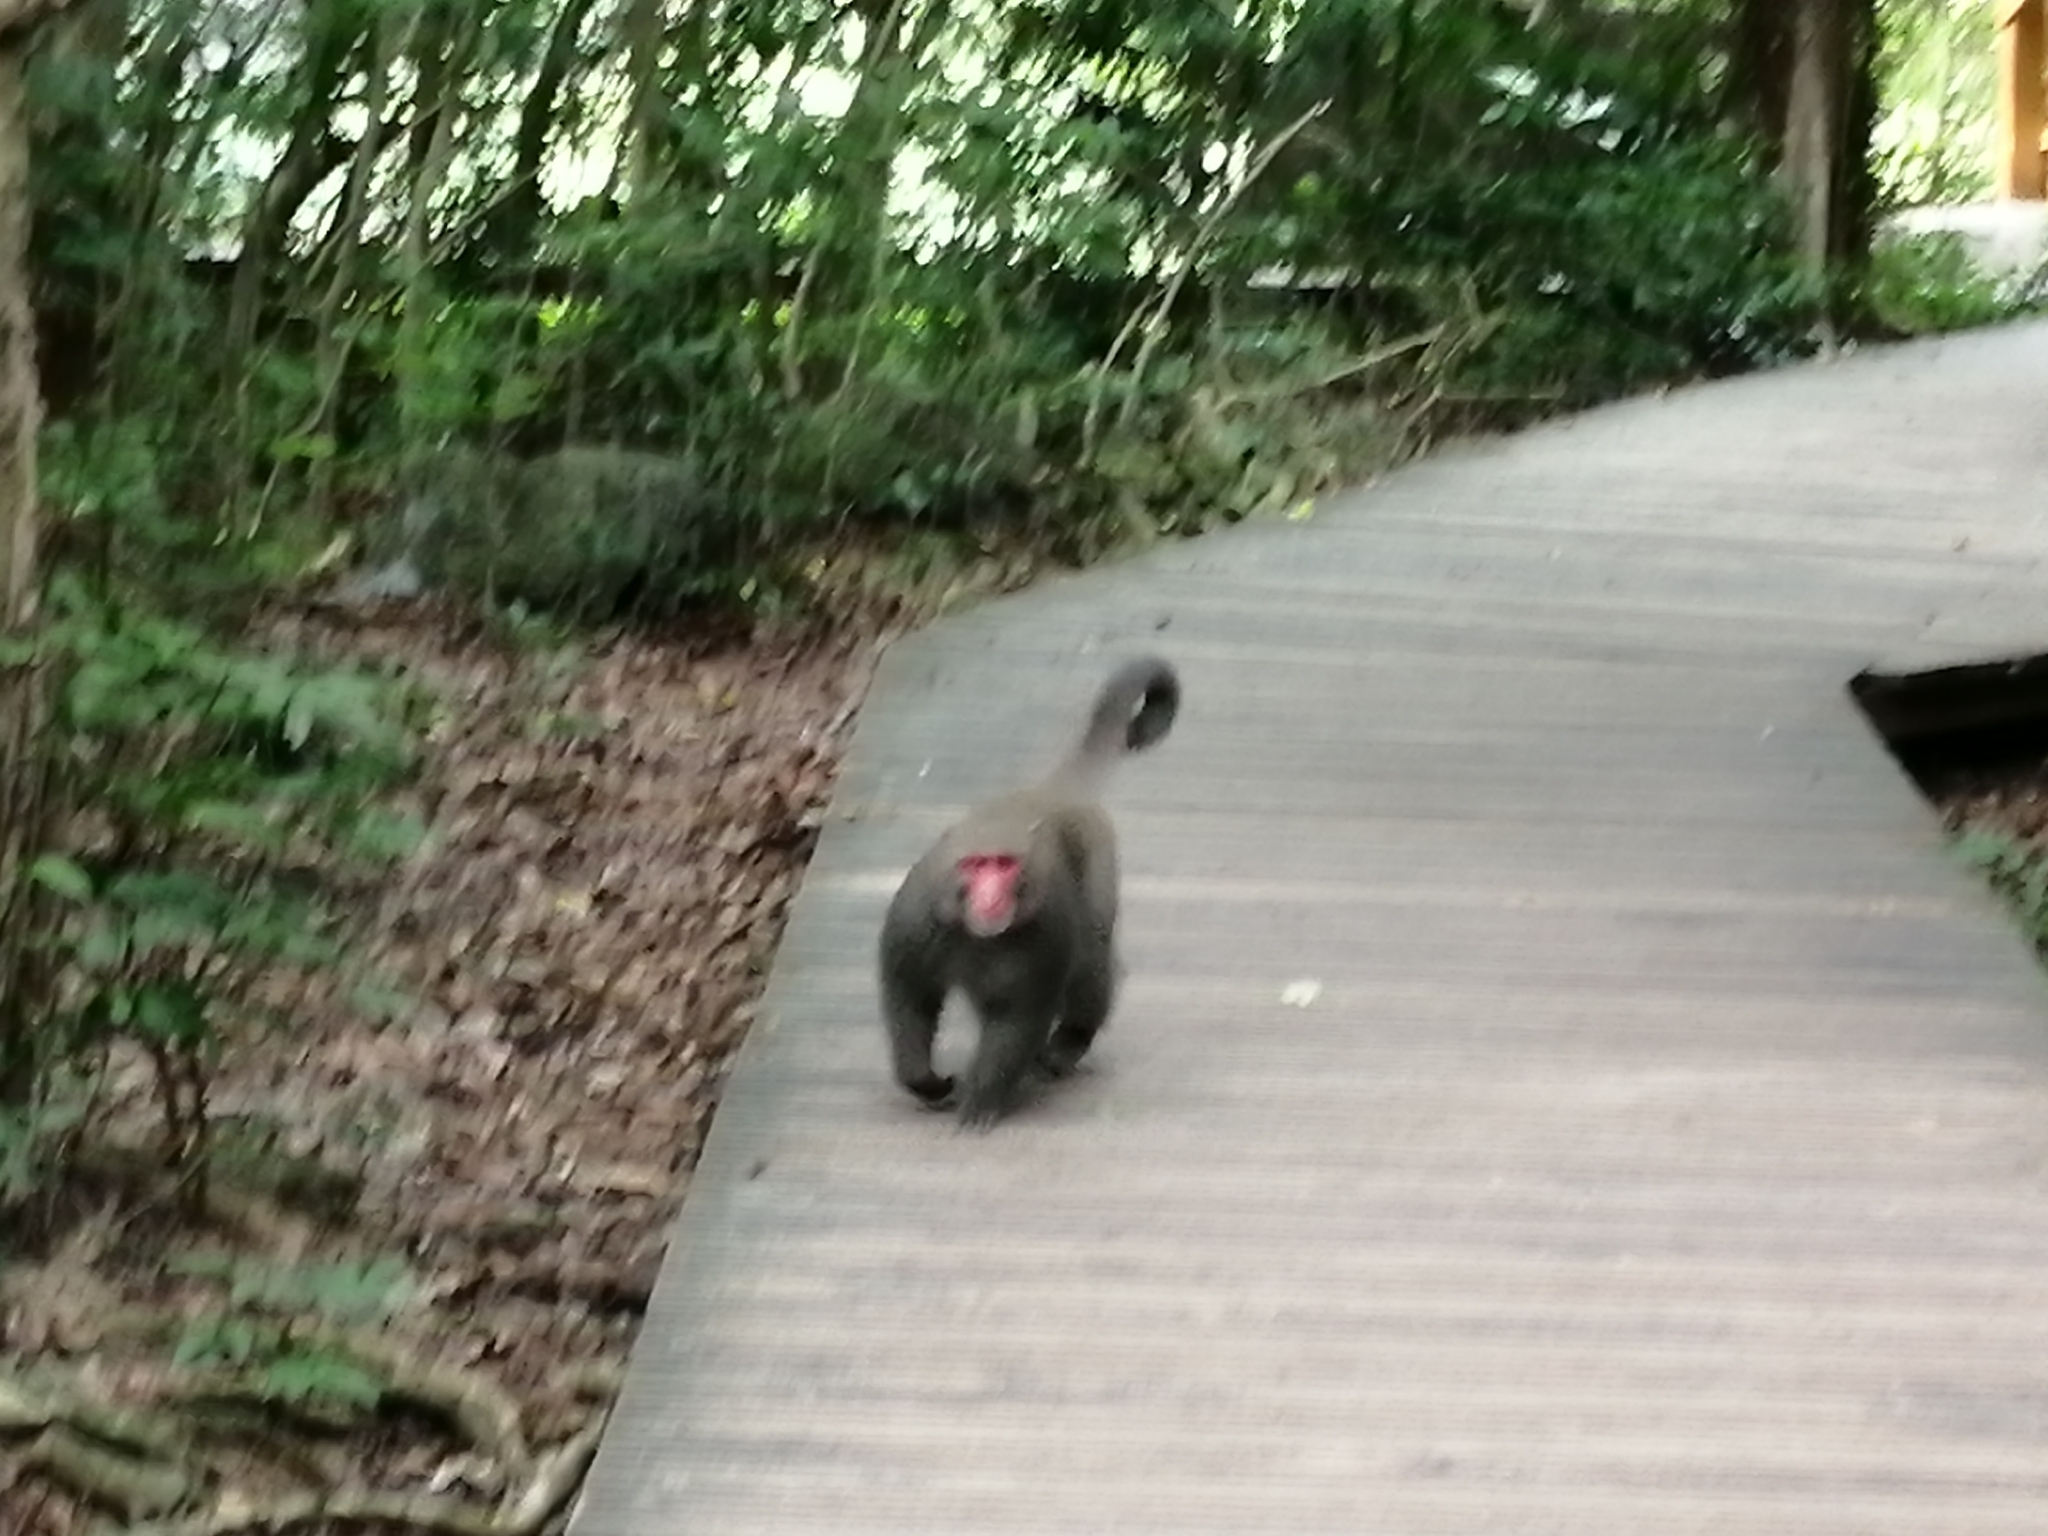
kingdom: Animalia
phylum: Chordata
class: Mammalia
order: Primates
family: Cercopithecidae
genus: Macaca
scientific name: Macaca cyclopis
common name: Formosan rock macaque
